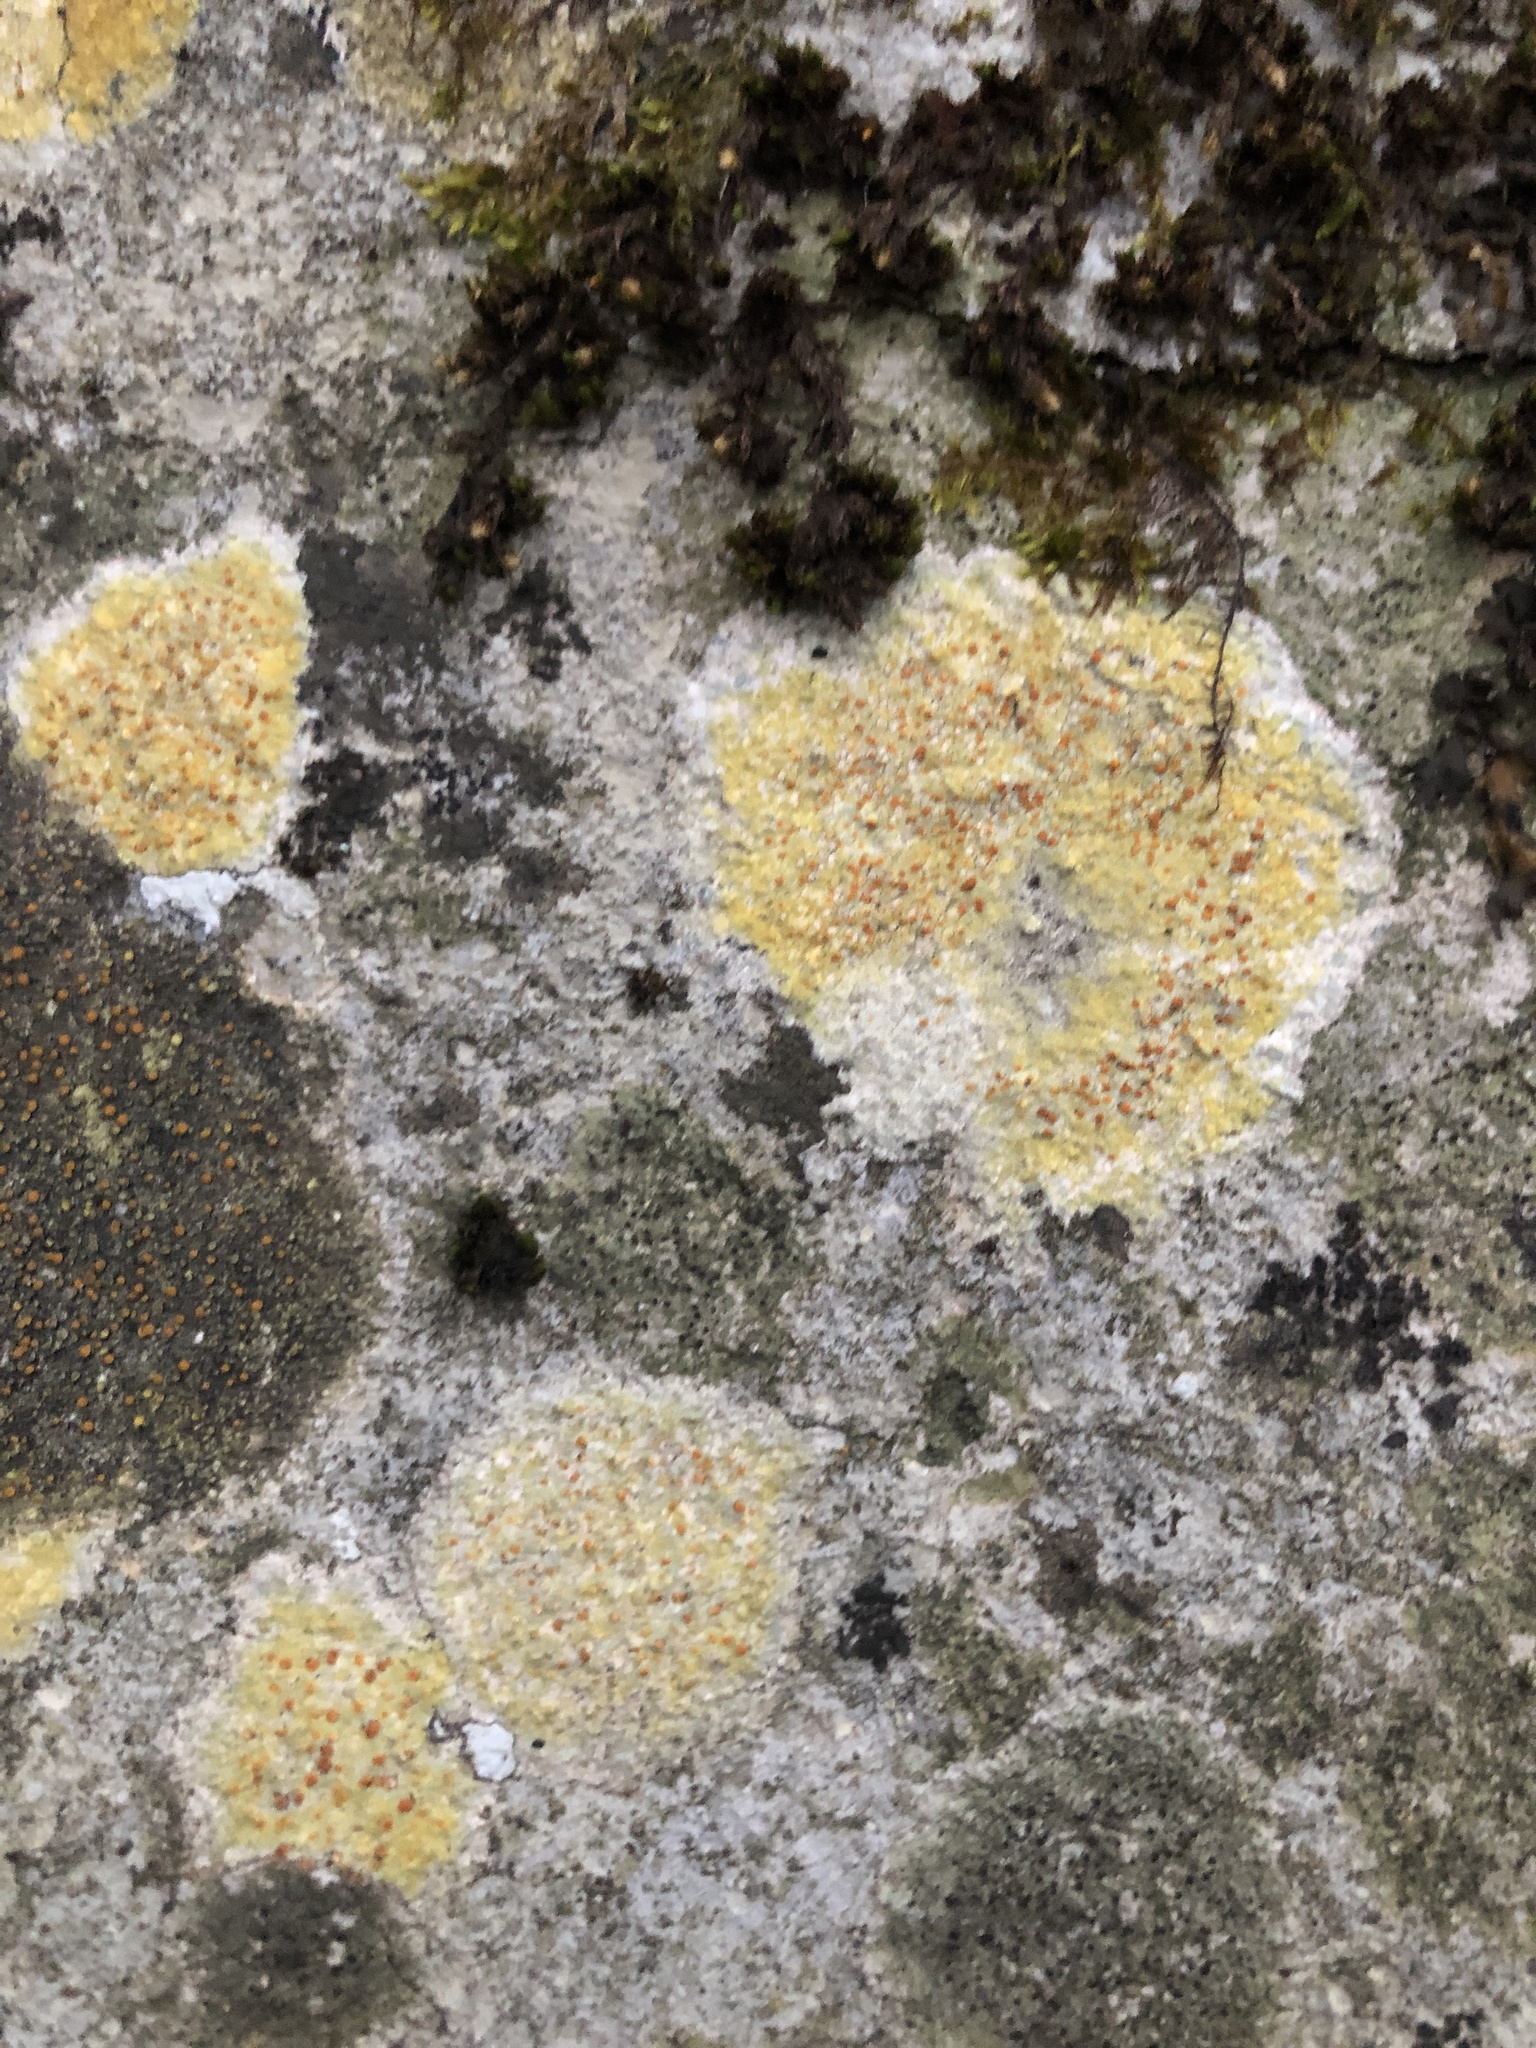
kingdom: Fungi
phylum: Ascomycota
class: Lecanoromycetes
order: Teloschistales
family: Teloschistaceae
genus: Gyalolechia
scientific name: Gyalolechia flavovirescens
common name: Sulphur firedot
